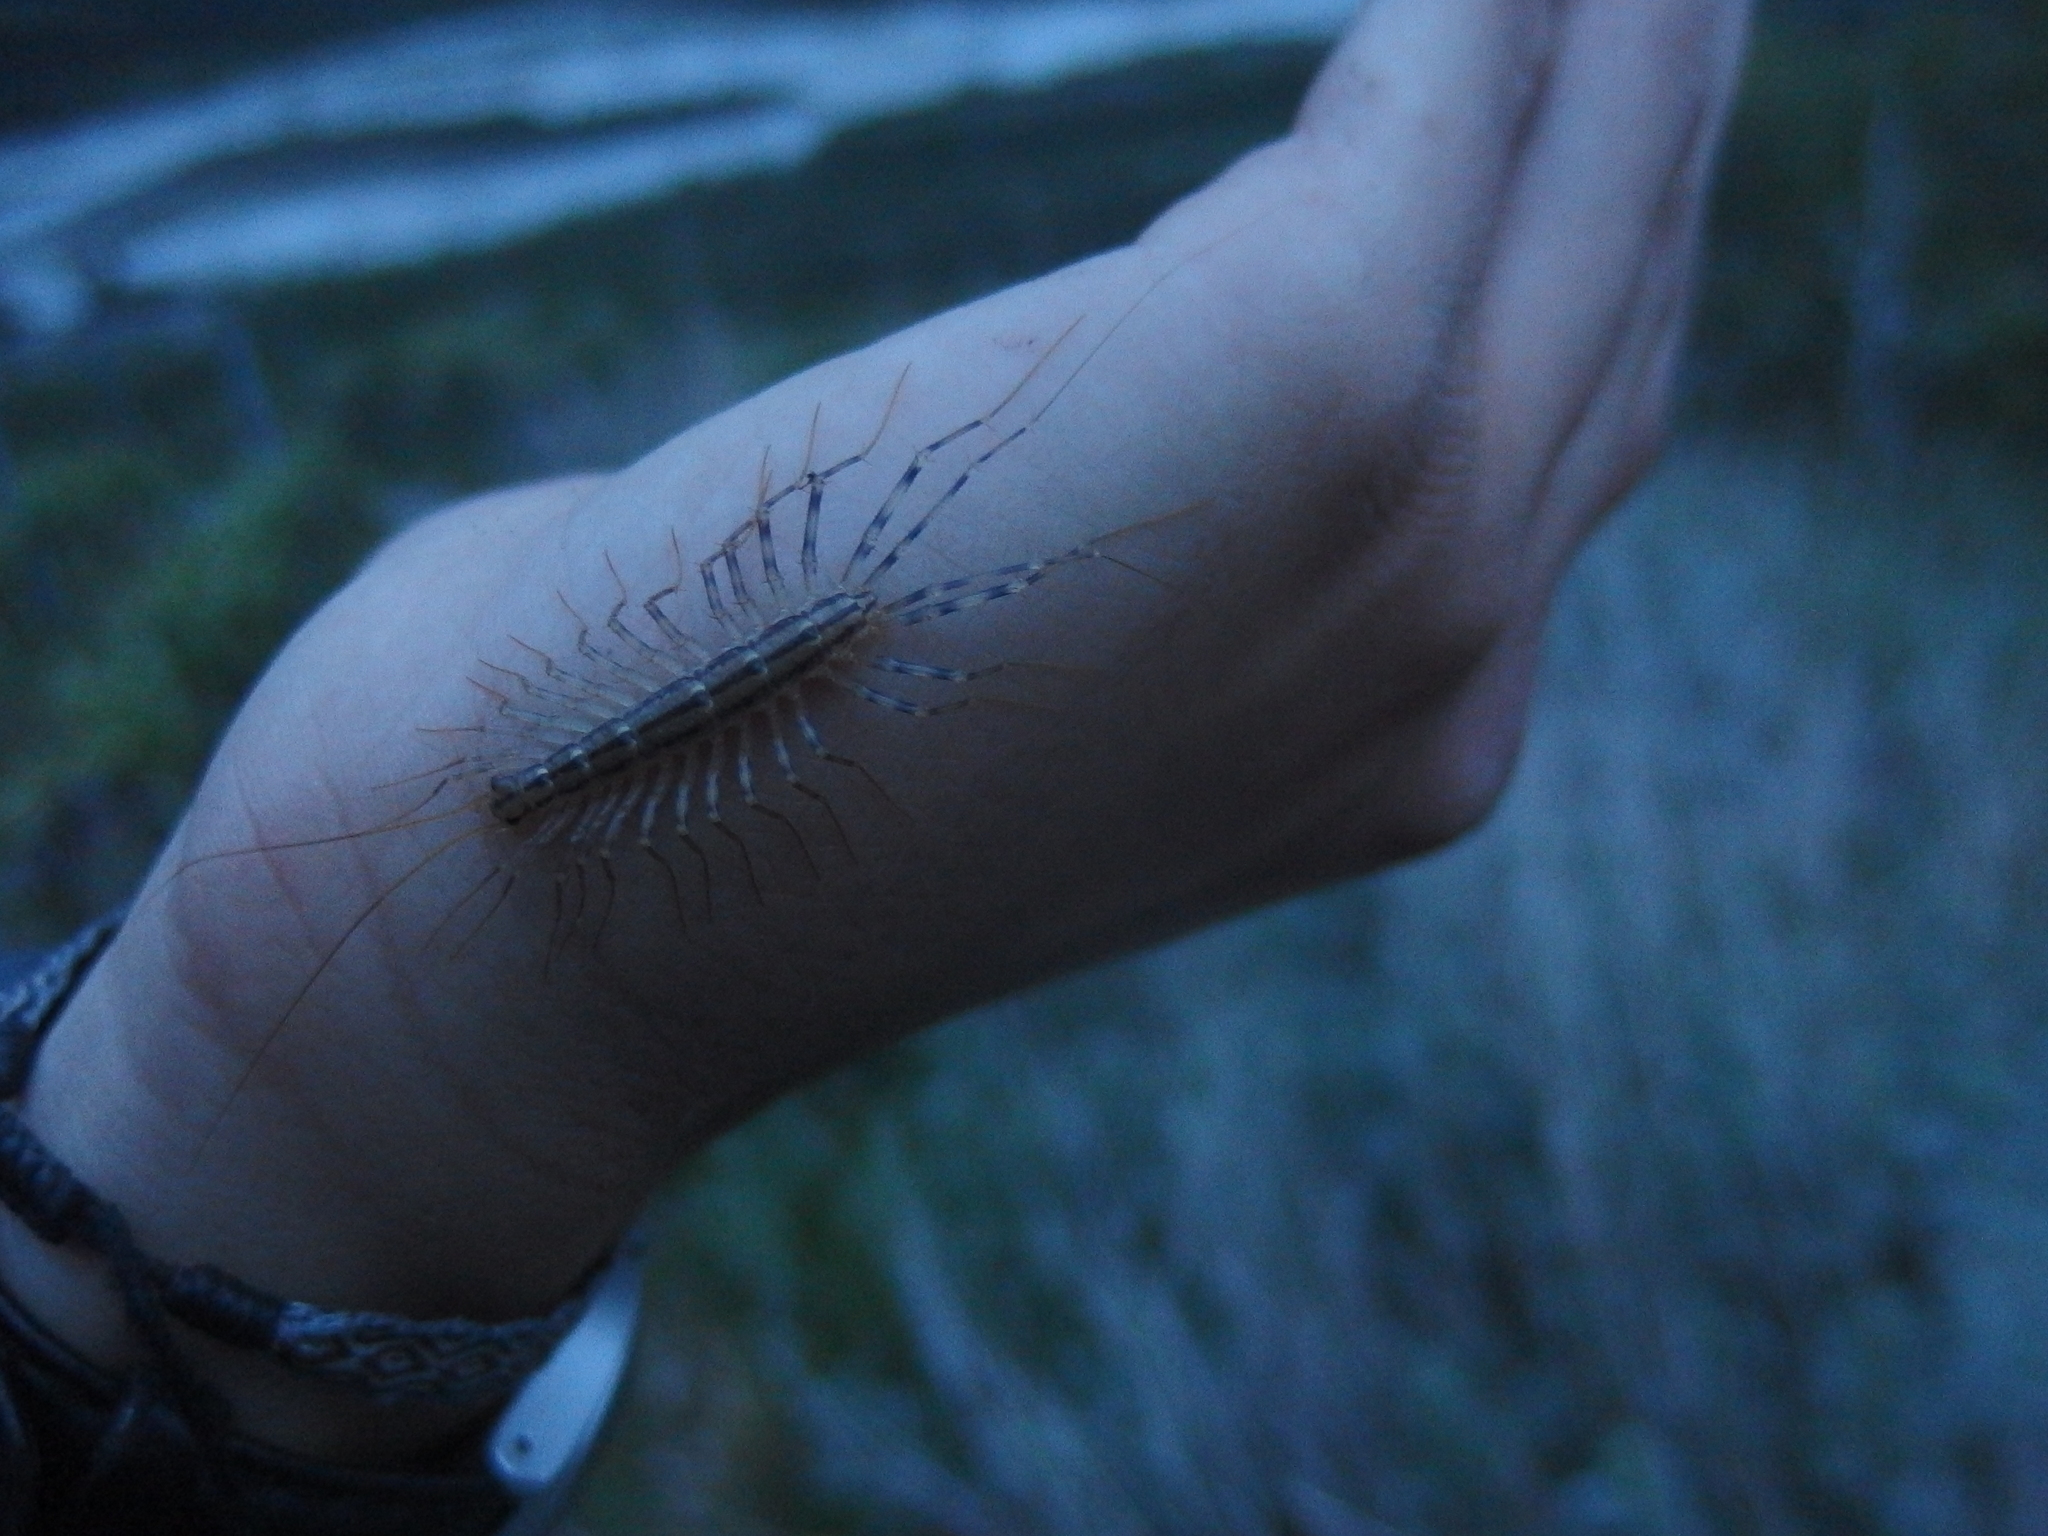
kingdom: Animalia
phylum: Arthropoda
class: Chilopoda
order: Scutigeromorpha
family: Scutigeridae
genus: Scutigera
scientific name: Scutigera coleoptrata
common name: House centipede
